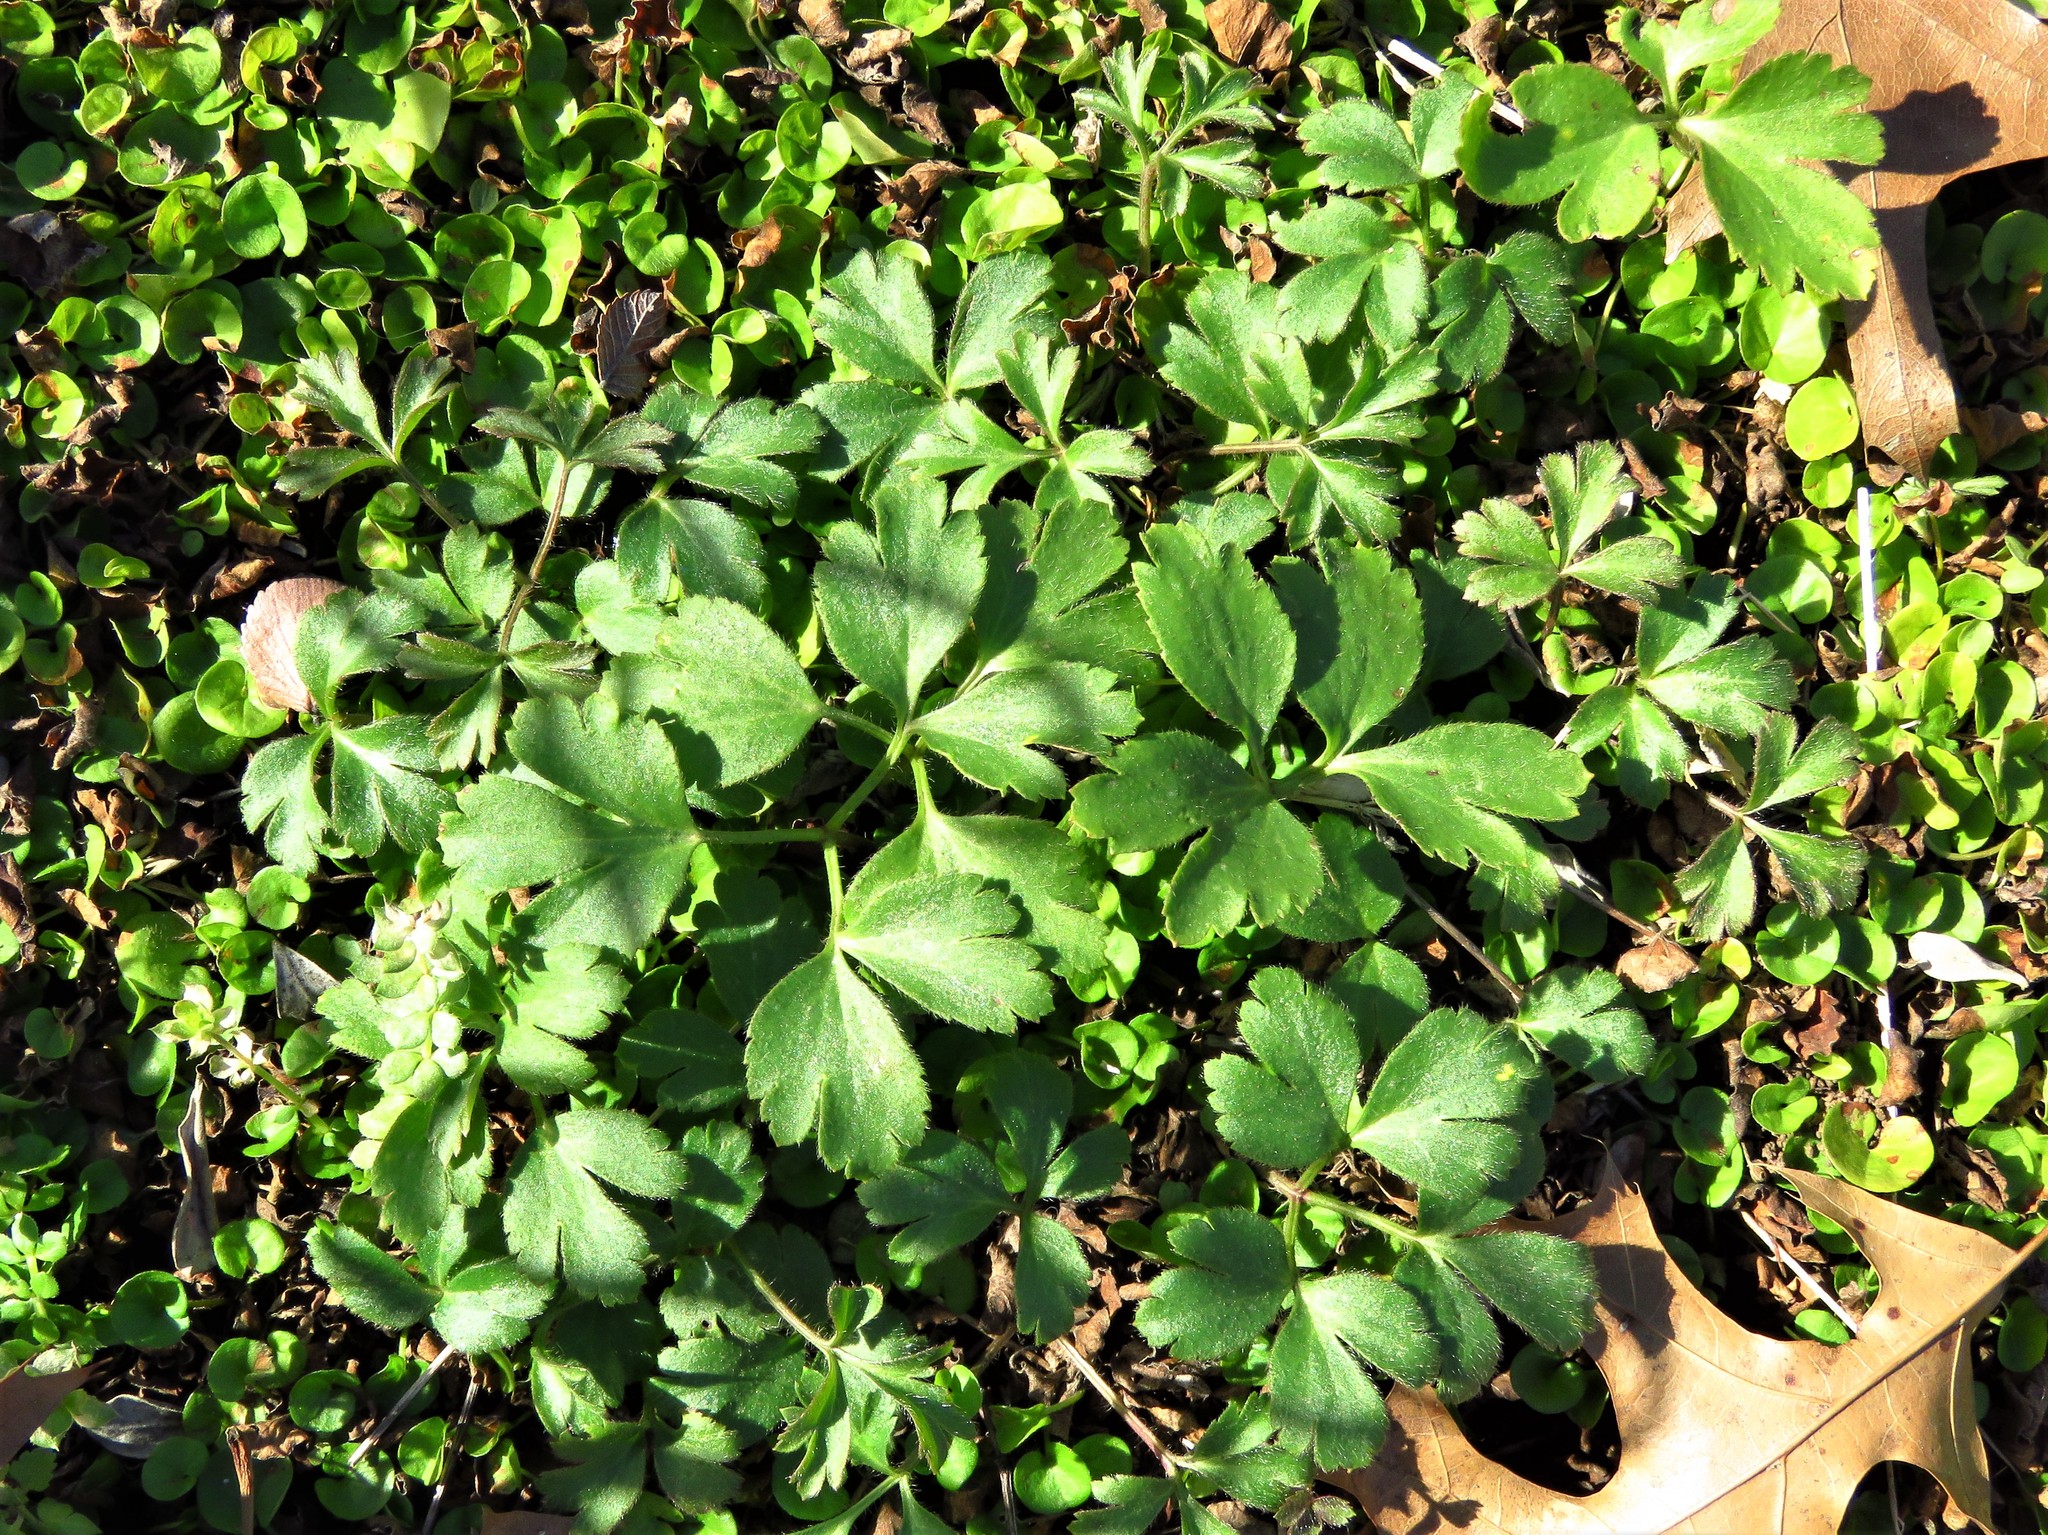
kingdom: Plantae
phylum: Tracheophyta
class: Magnoliopsida
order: Ranunculales
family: Ranunculaceae
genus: Anemone
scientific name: Anemone berlandieri
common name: Ten-petal anemone
